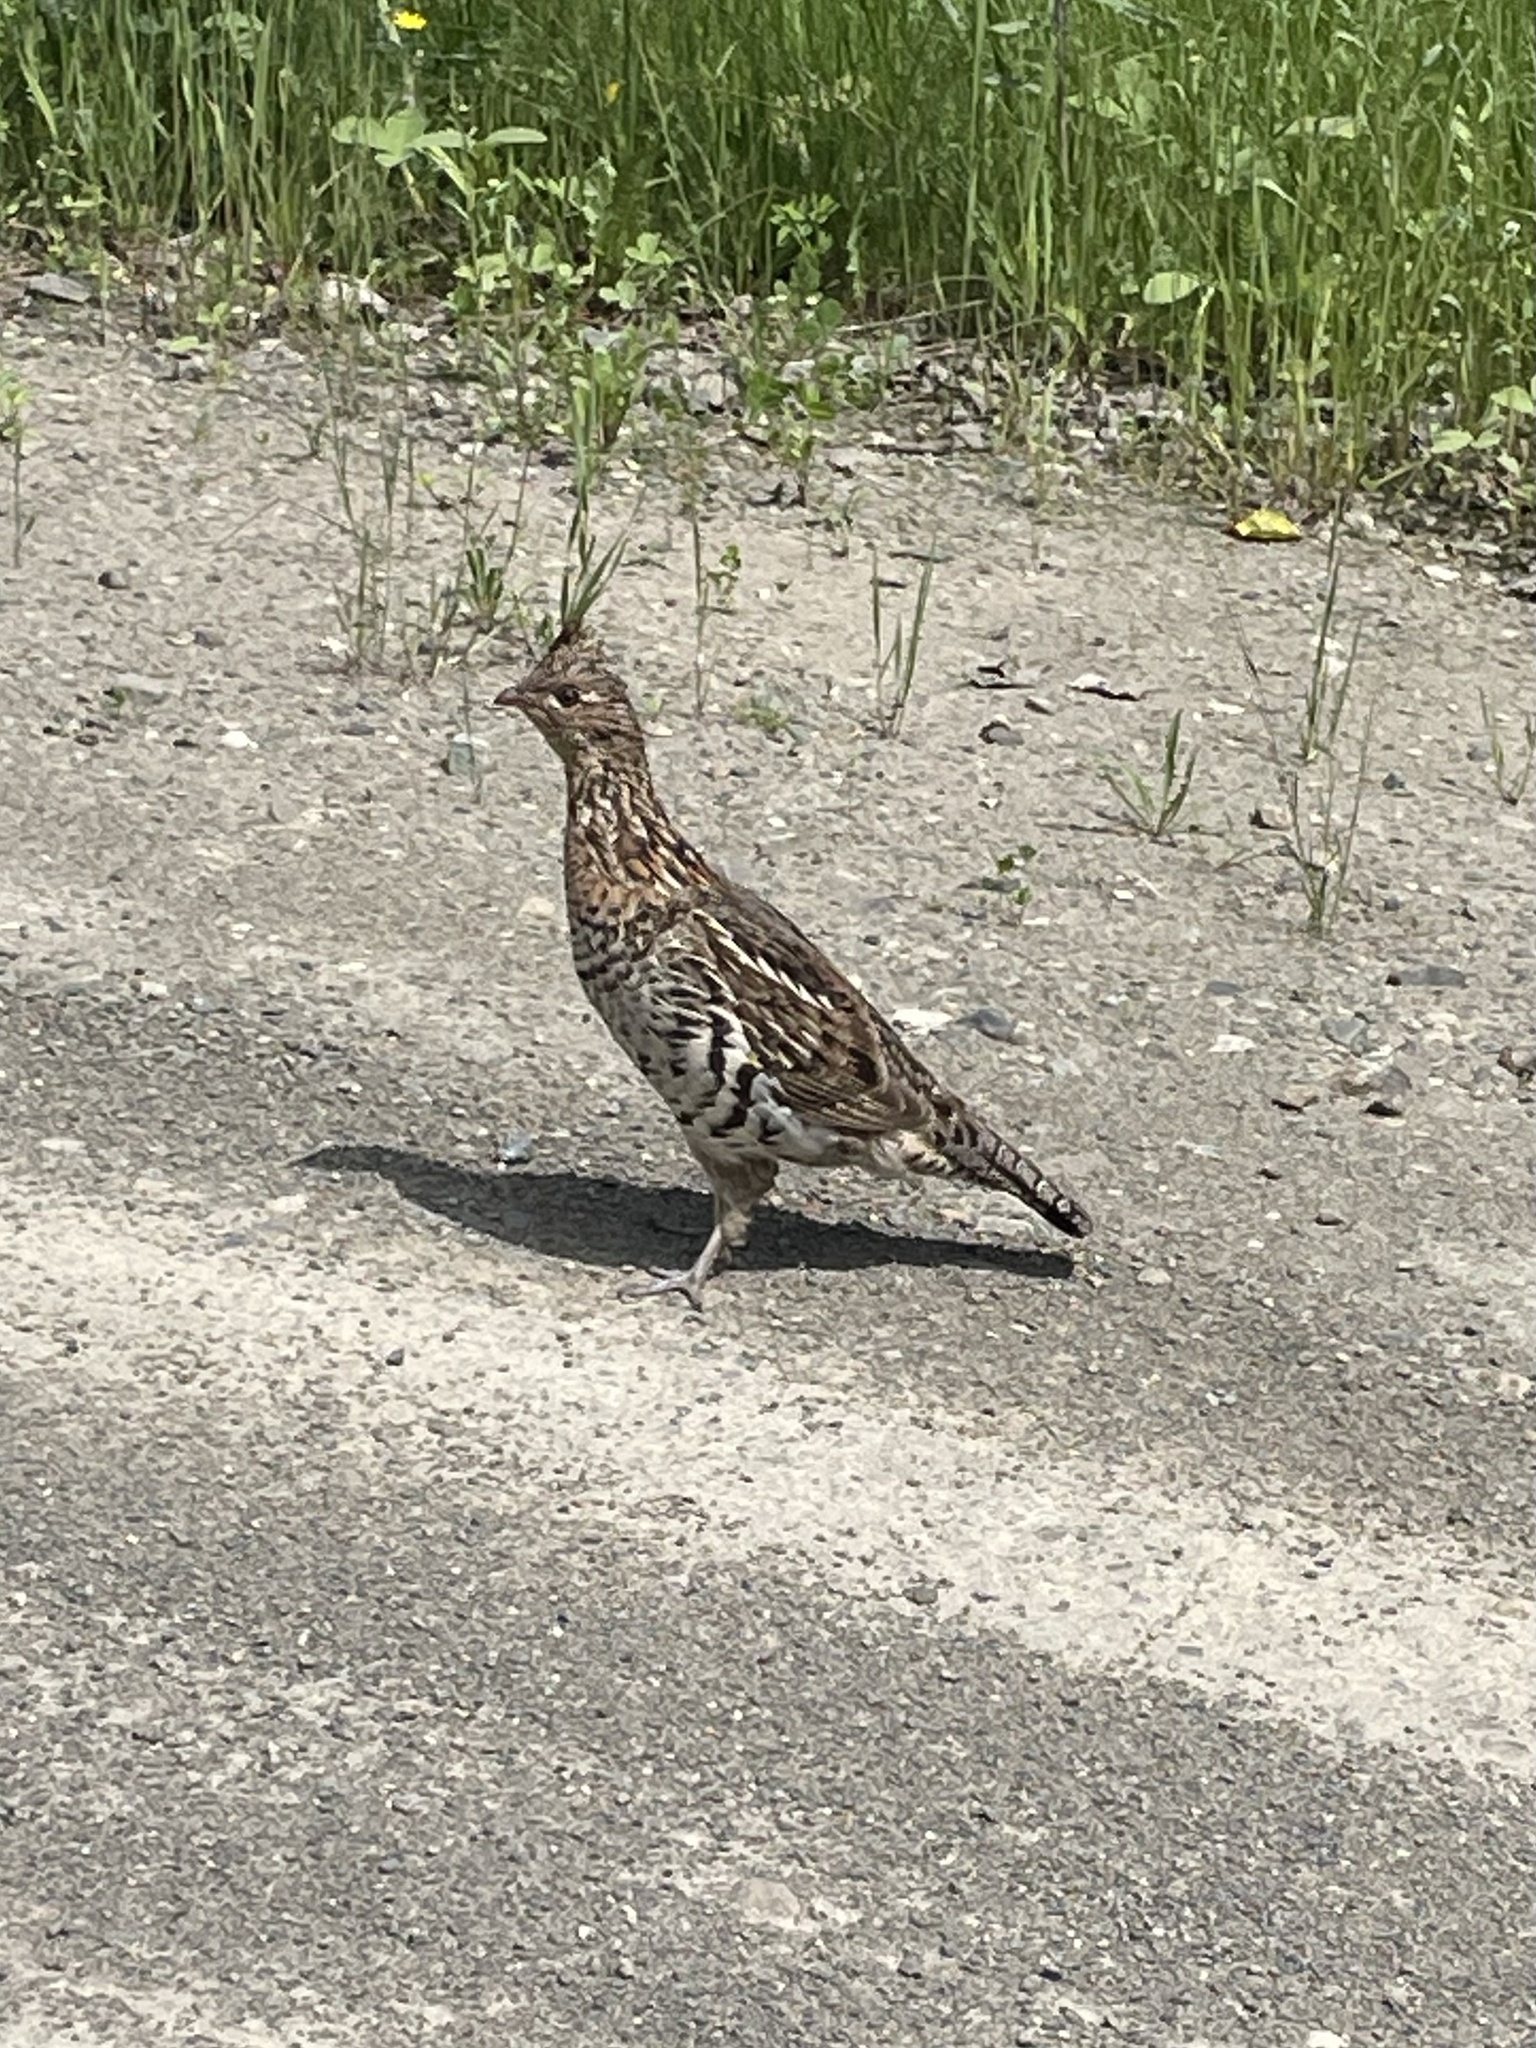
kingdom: Animalia
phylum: Chordata
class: Aves
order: Galliformes
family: Phasianidae
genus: Bonasa
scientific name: Bonasa umbellus
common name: Ruffed grouse
